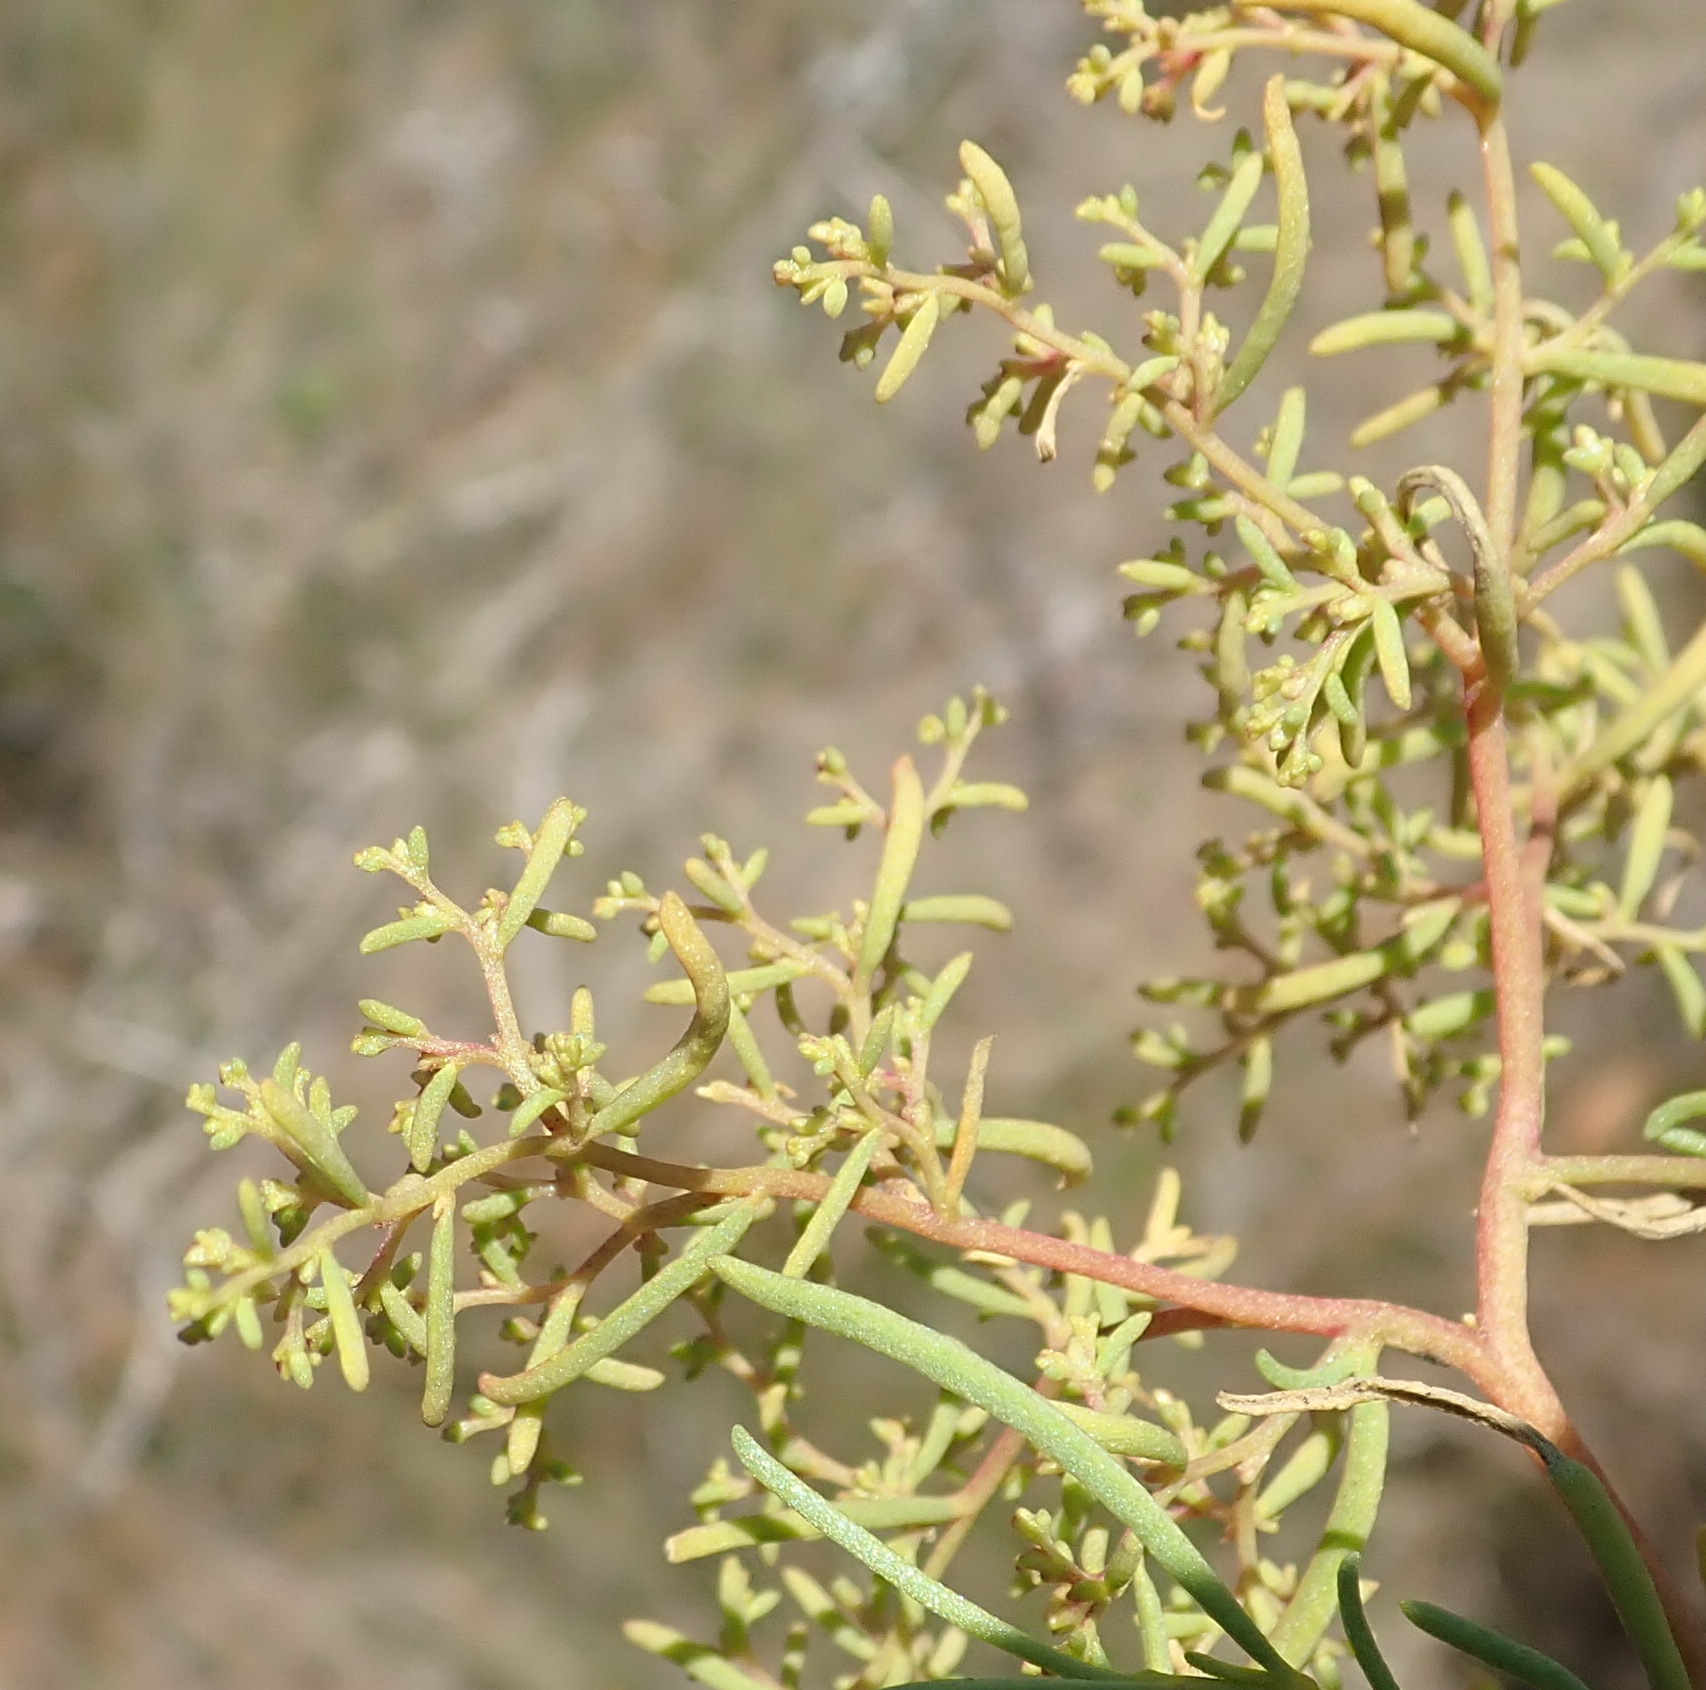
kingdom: Plantae
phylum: Tracheophyta
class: Magnoliopsida
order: Caryophyllales
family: Aizoaceae
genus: Aizoon
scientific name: Aizoon africanum
